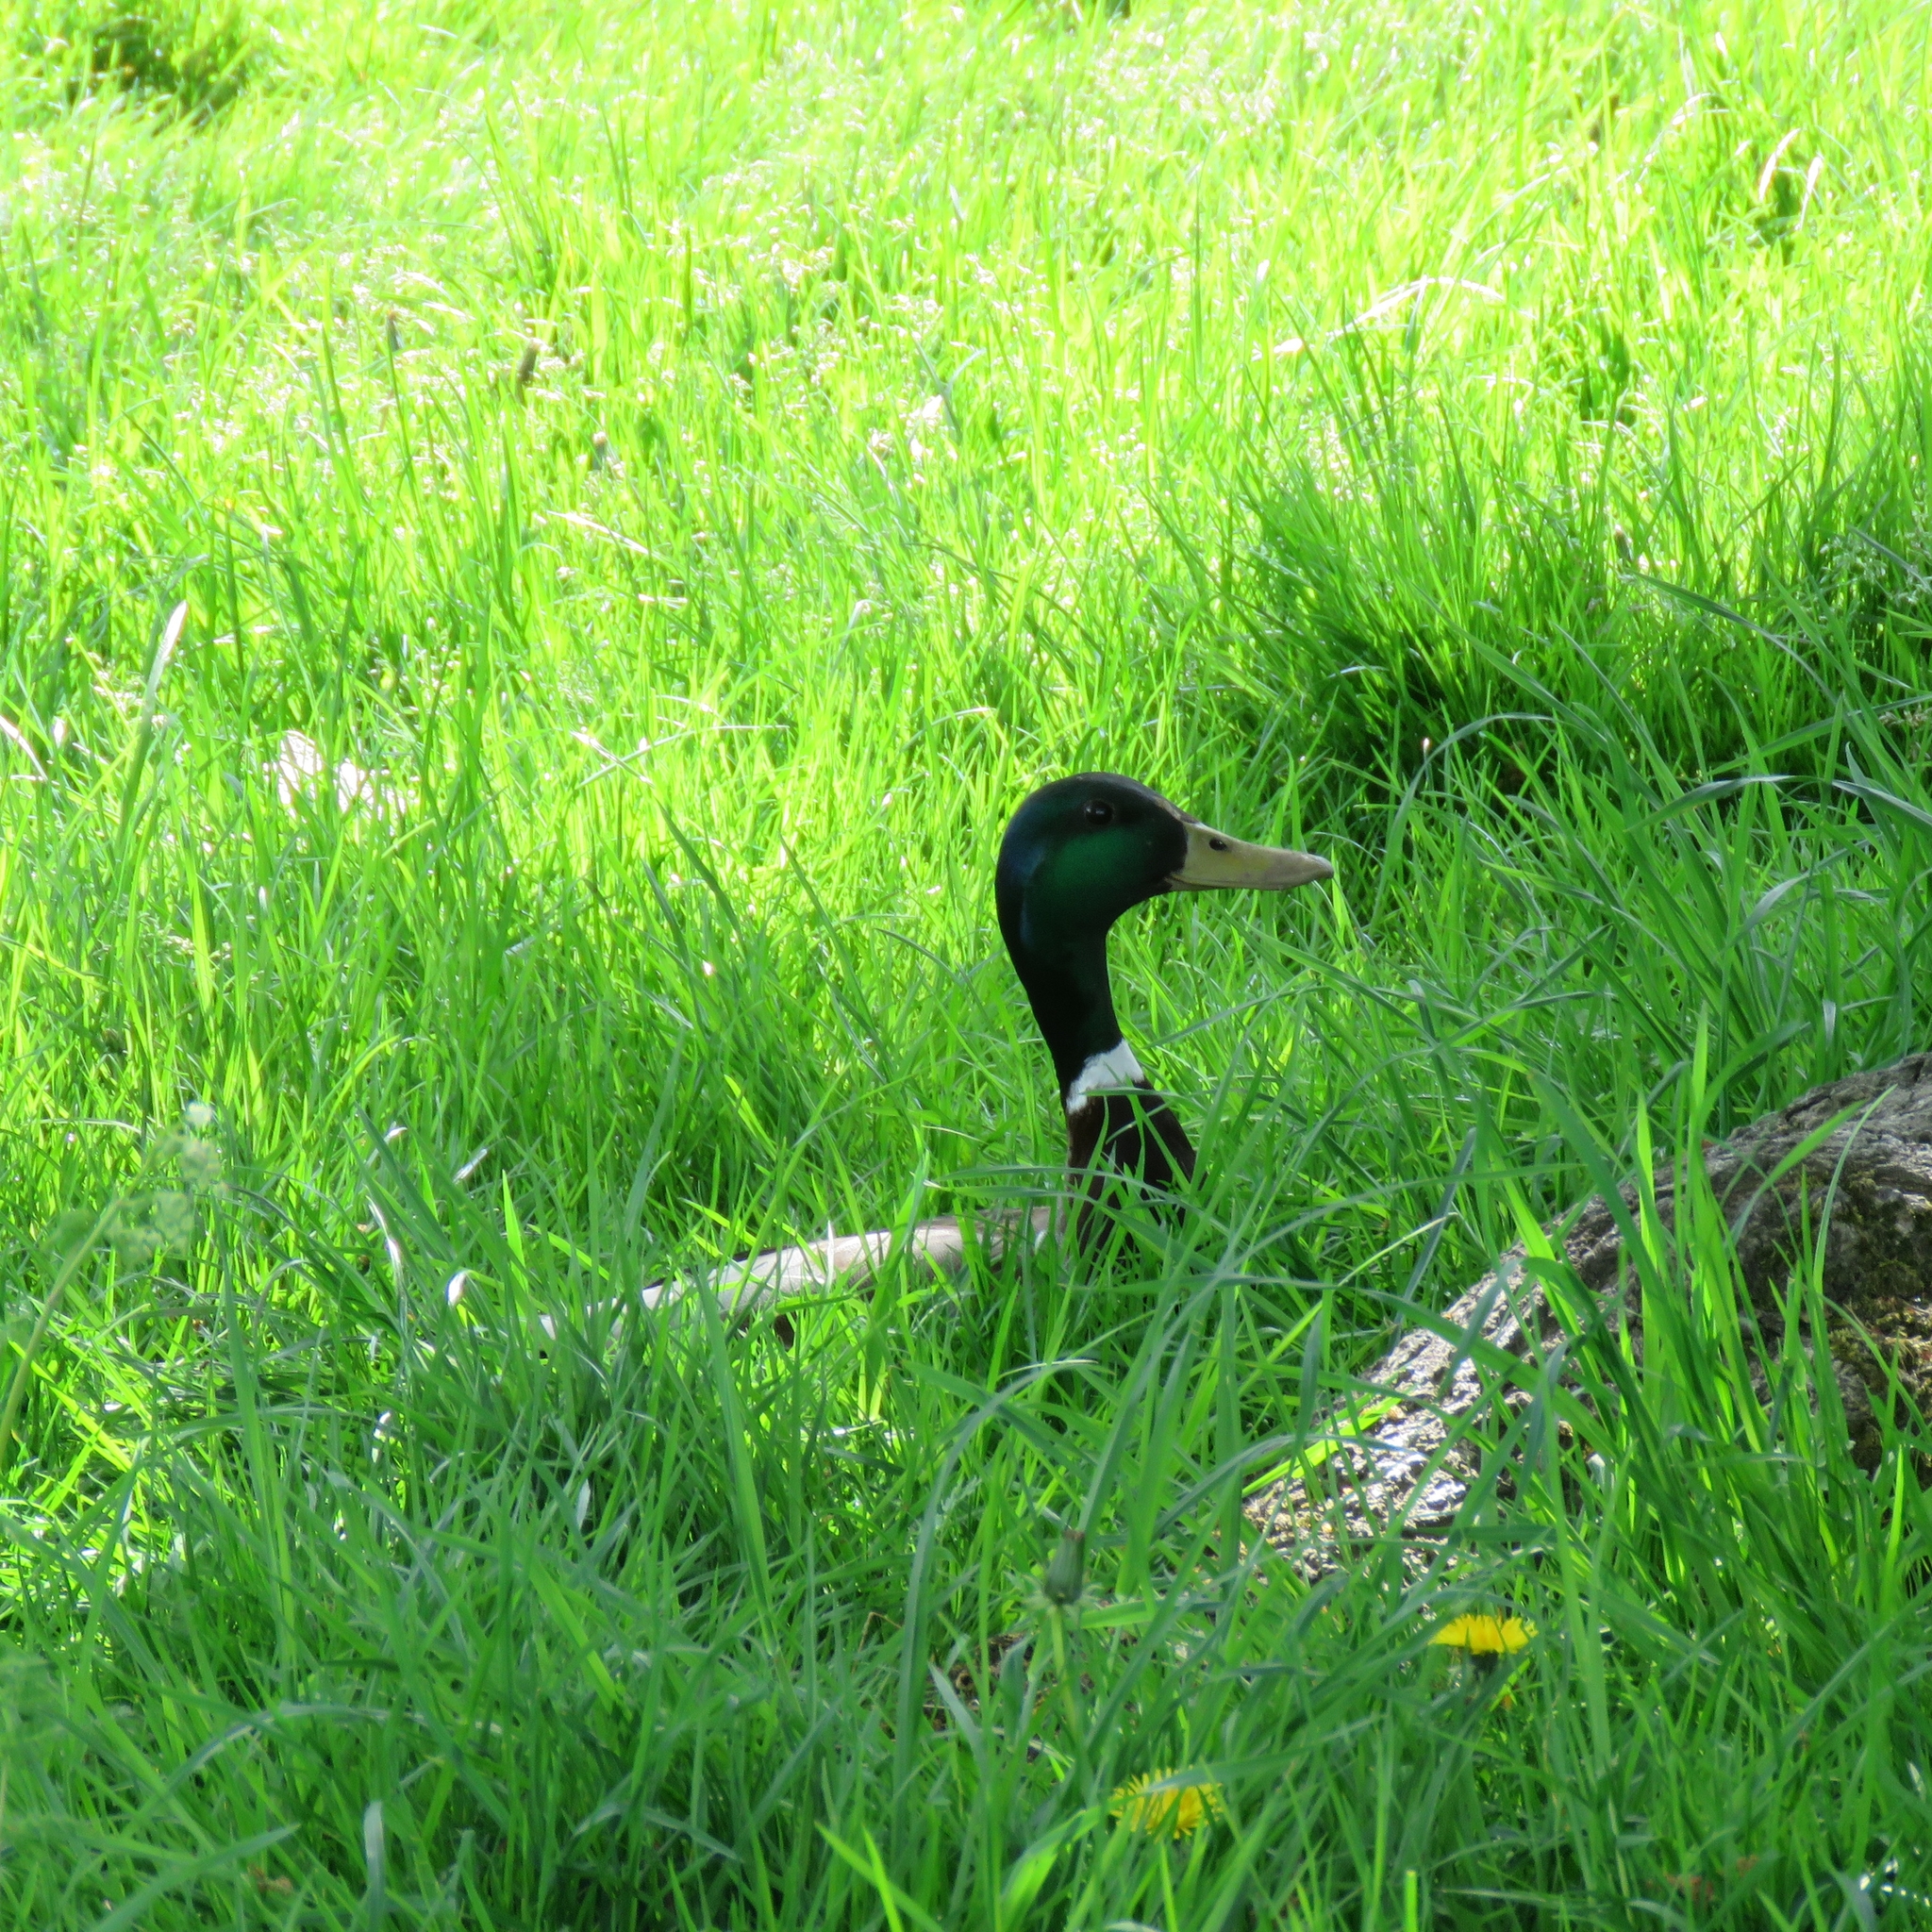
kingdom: Animalia
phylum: Chordata
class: Aves
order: Anseriformes
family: Anatidae
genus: Anas
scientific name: Anas platyrhynchos
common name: Mallard
